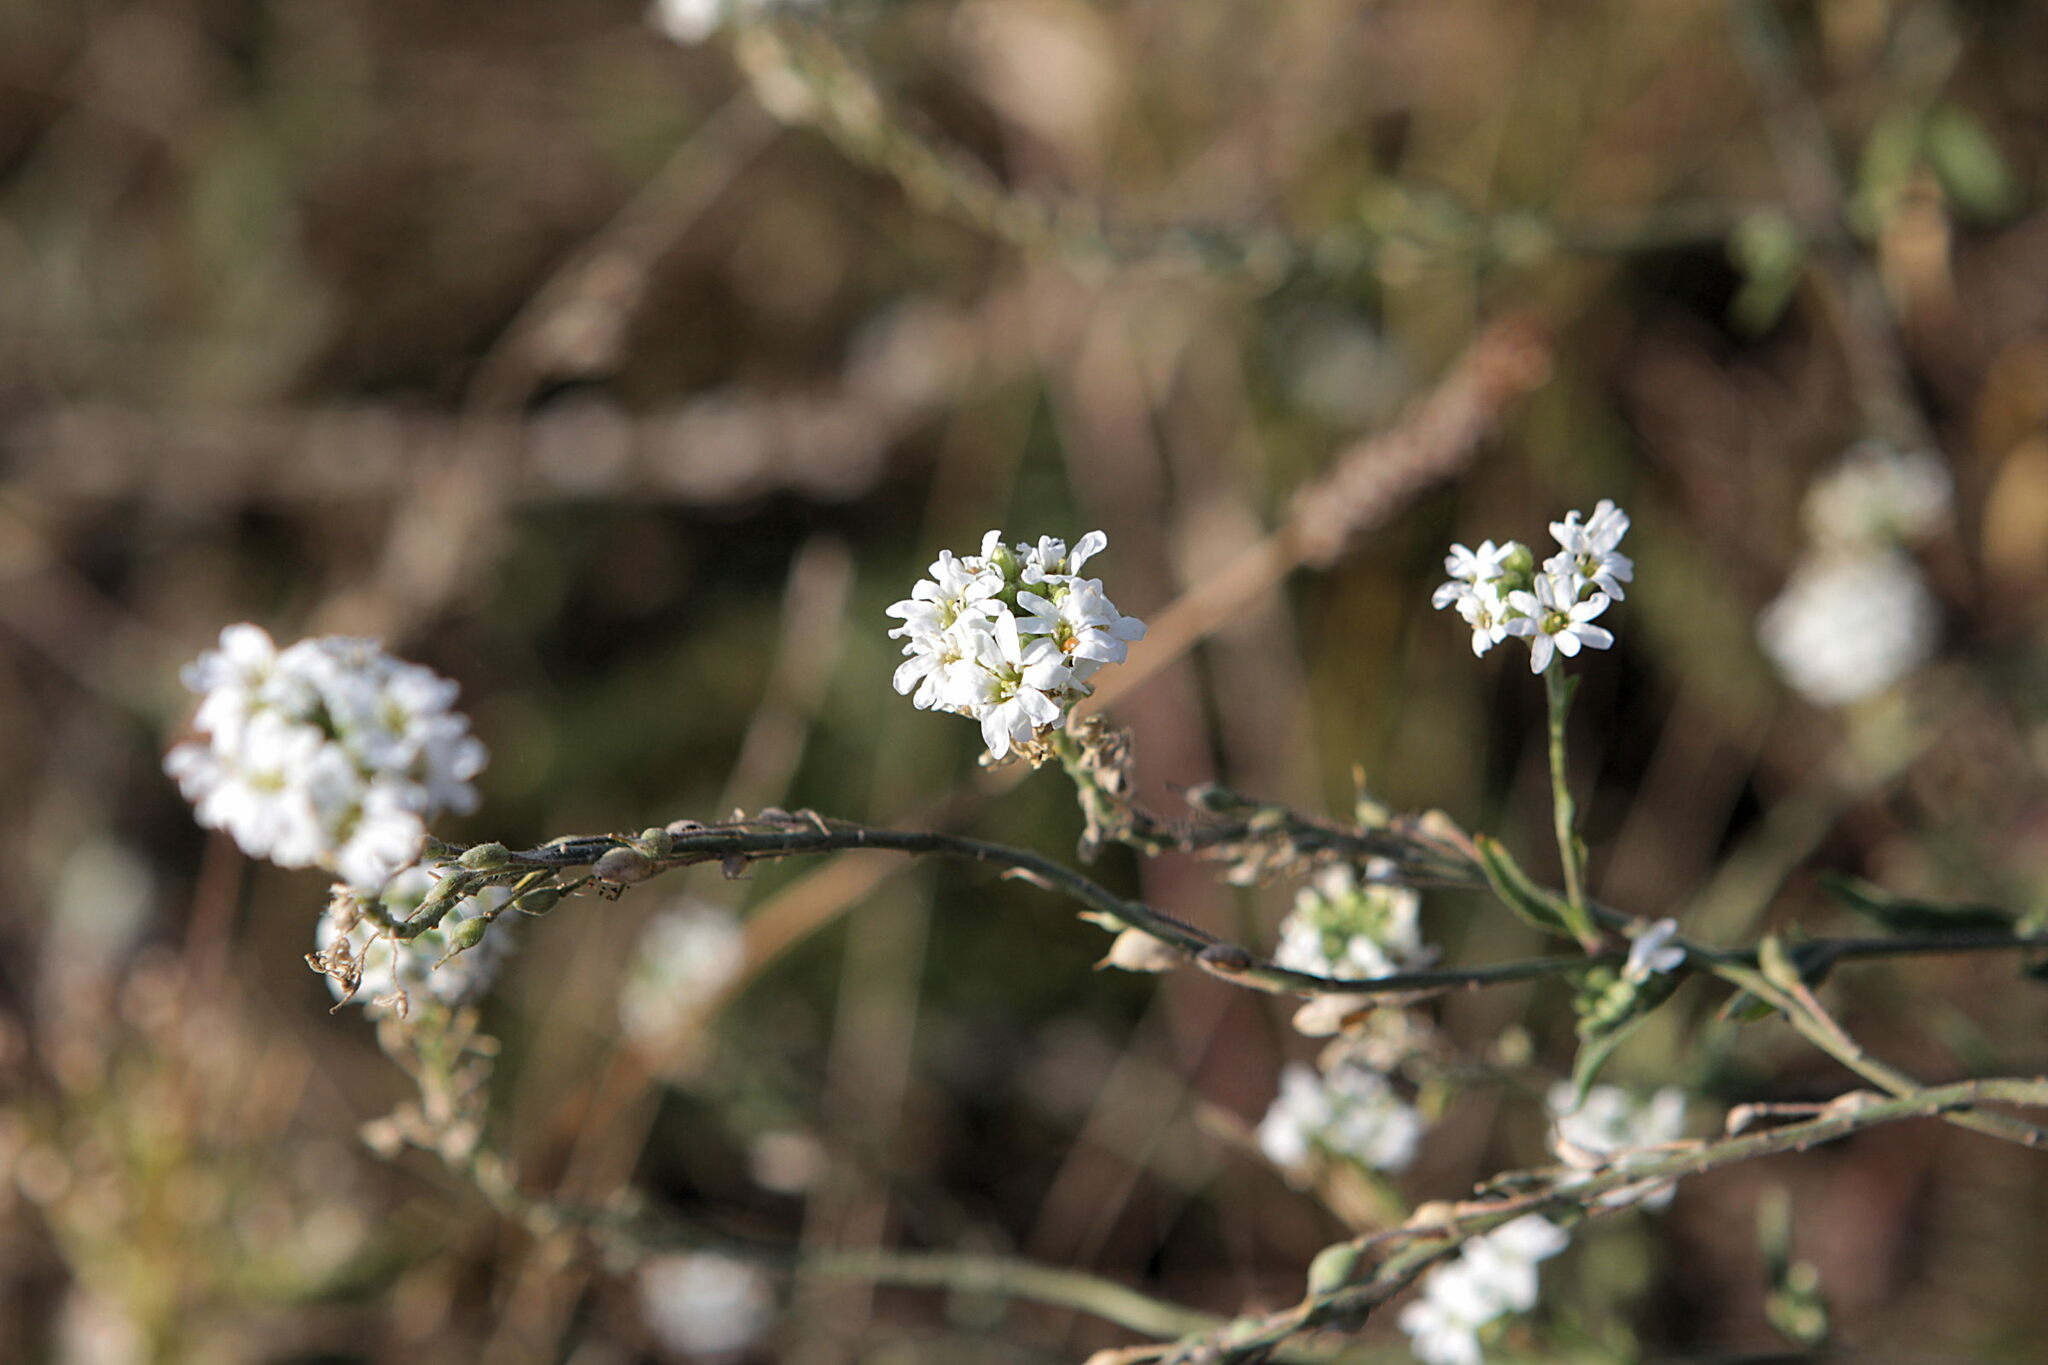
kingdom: Plantae
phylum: Tracheophyta
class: Magnoliopsida
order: Brassicales
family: Brassicaceae
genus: Berteroa
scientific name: Berteroa incana
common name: Hoary alison
